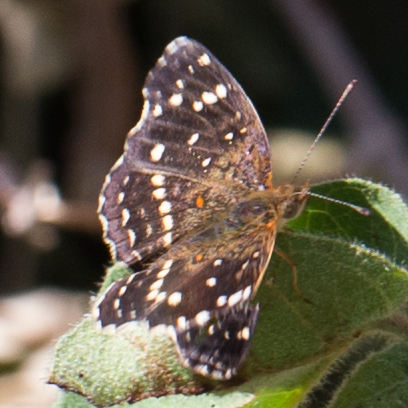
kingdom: Animalia
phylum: Arthropoda
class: Insecta
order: Lepidoptera
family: Nymphalidae
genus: Anthanassa
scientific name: Anthanassa texana
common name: Texan crescent
